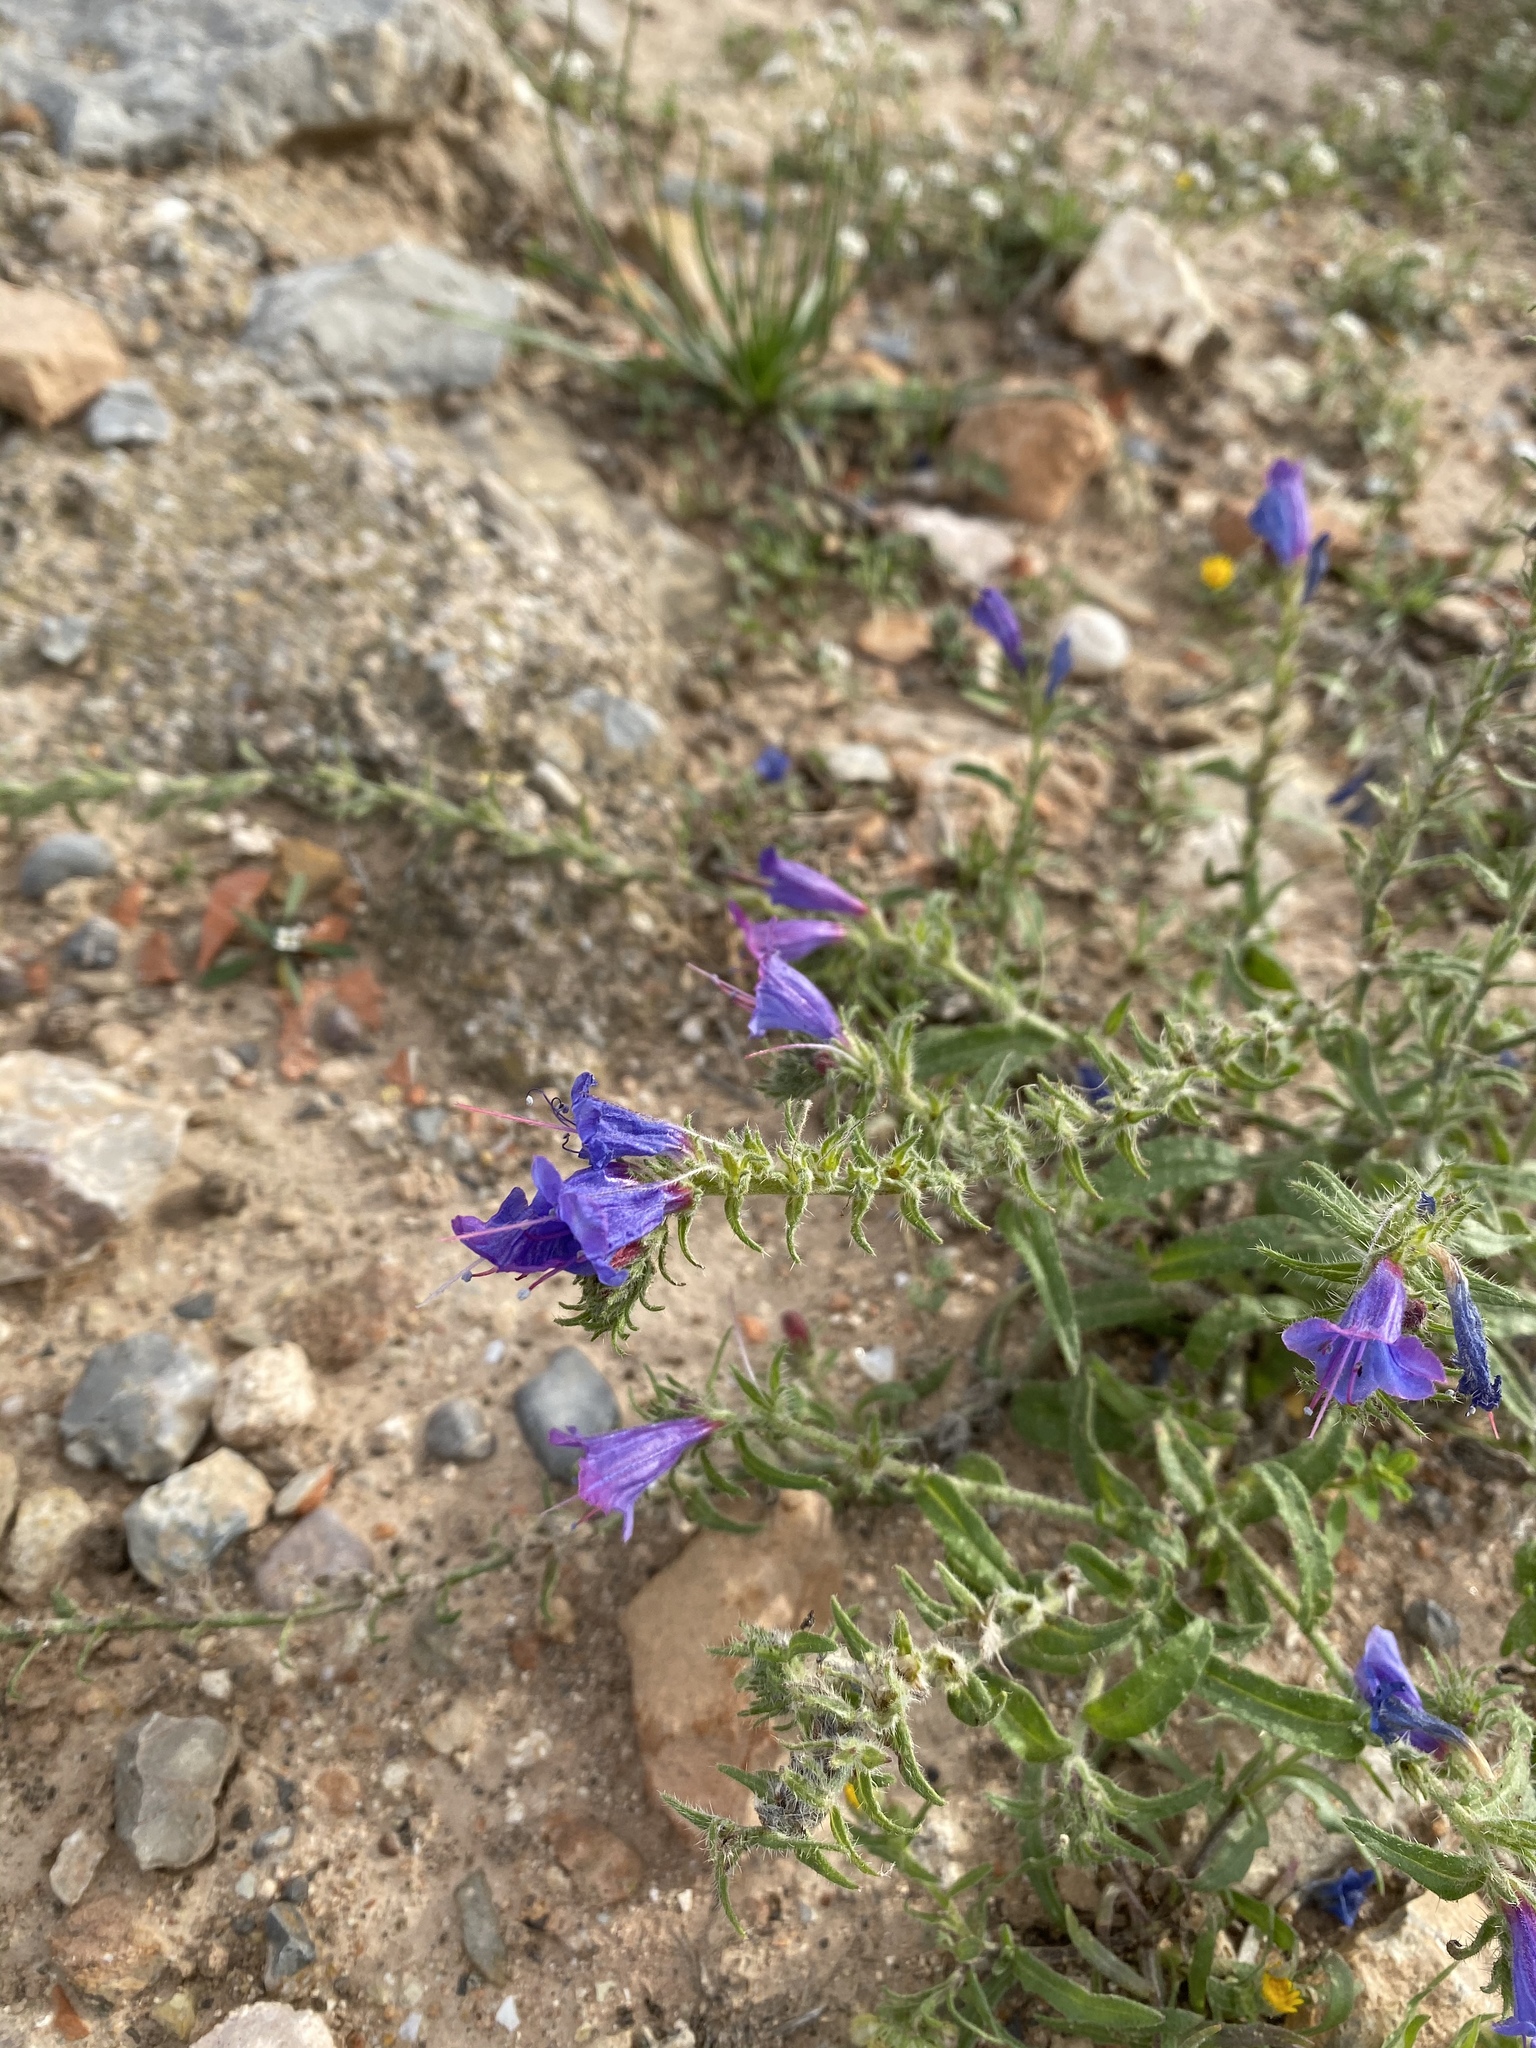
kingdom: Plantae
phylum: Tracheophyta
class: Magnoliopsida
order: Boraginales
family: Boraginaceae
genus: Echium
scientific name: Echium sabulicola
